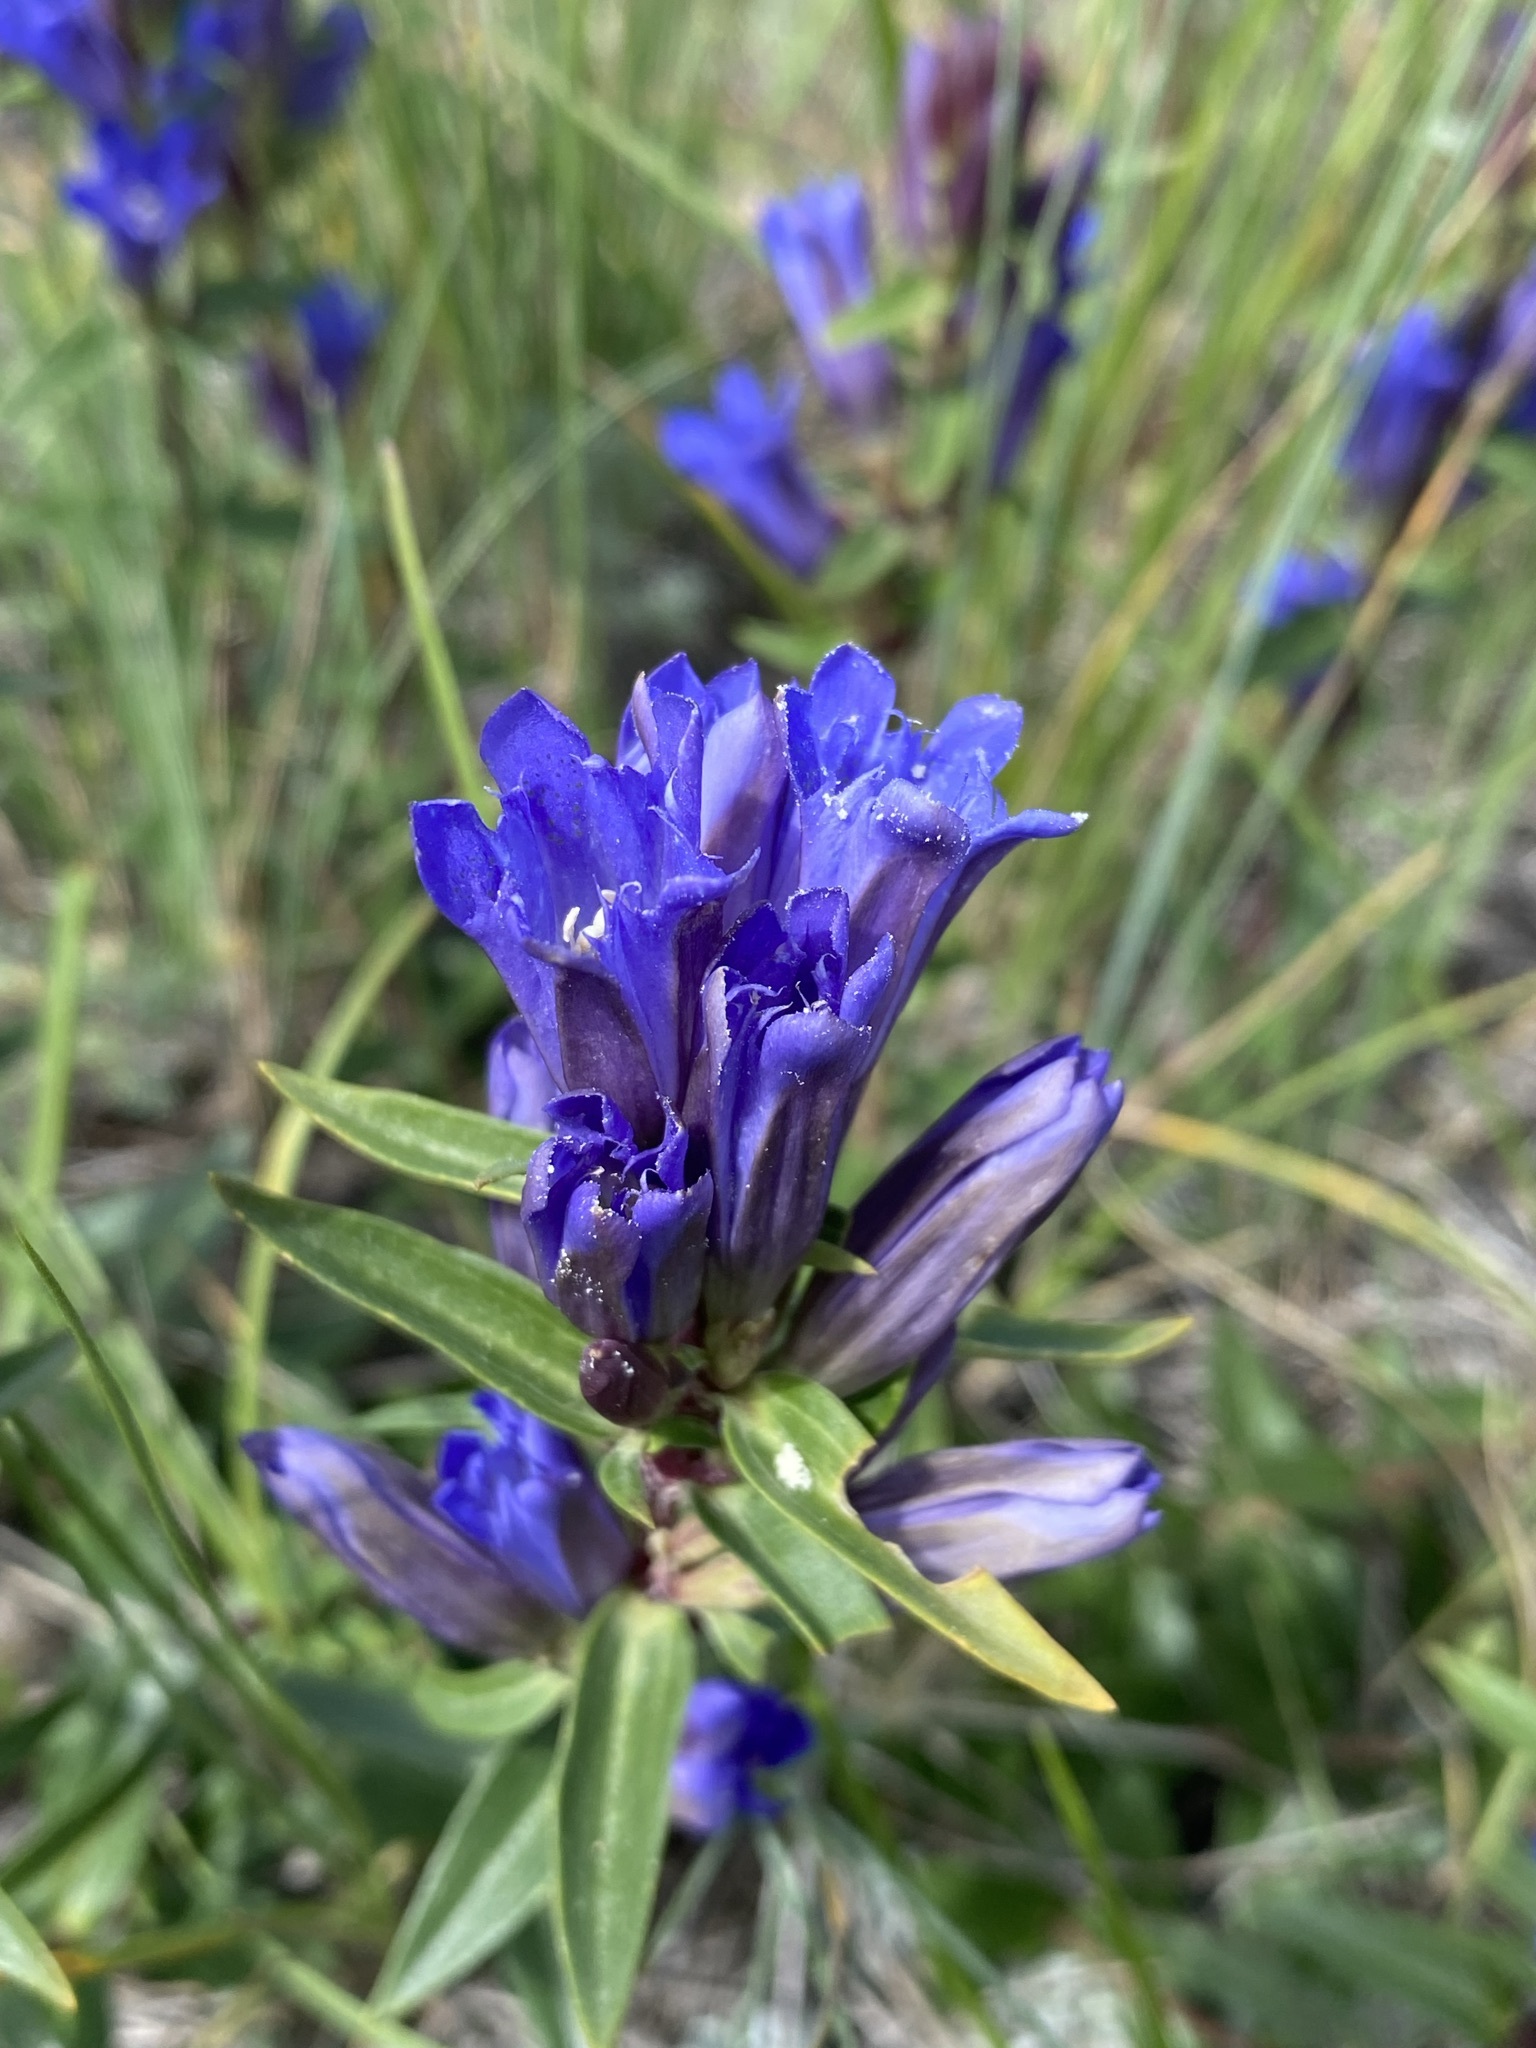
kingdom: Plantae
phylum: Tracheophyta
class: Magnoliopsida
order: Gentianales
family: Gentianaceae
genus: Gentiana
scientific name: Gentiana affinis
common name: Rocky mountain gentian
